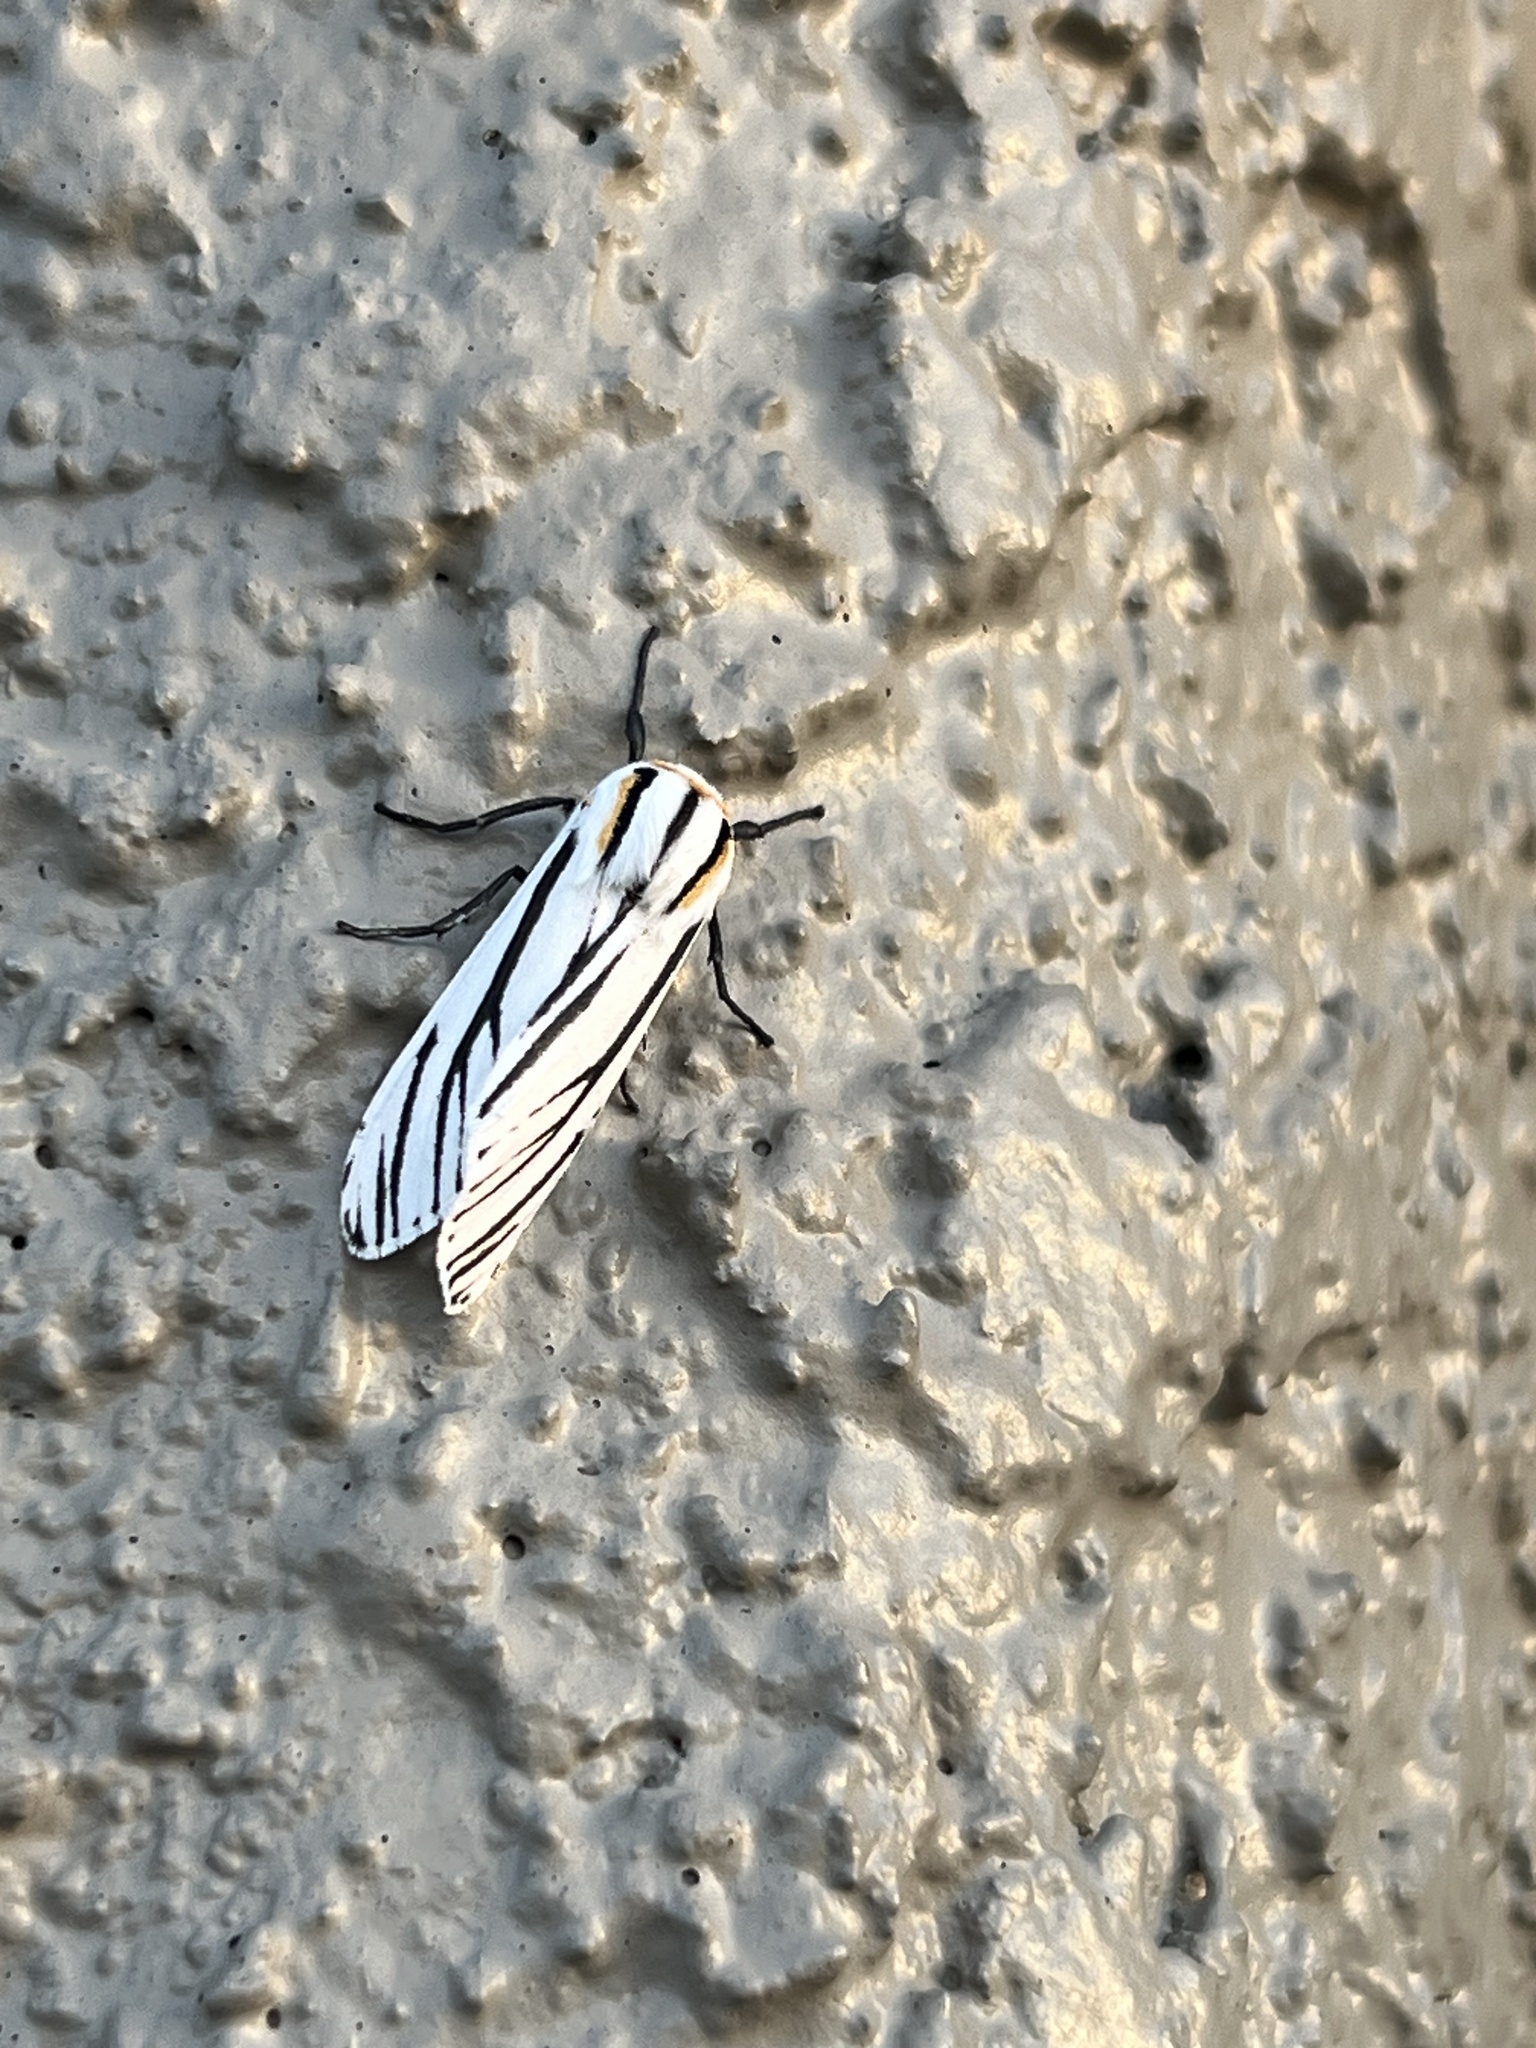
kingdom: Animalia
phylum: Arthropoda
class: Insecta
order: Lepidoptera
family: Erebidae
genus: Ectypia
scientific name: Ectypia clio
